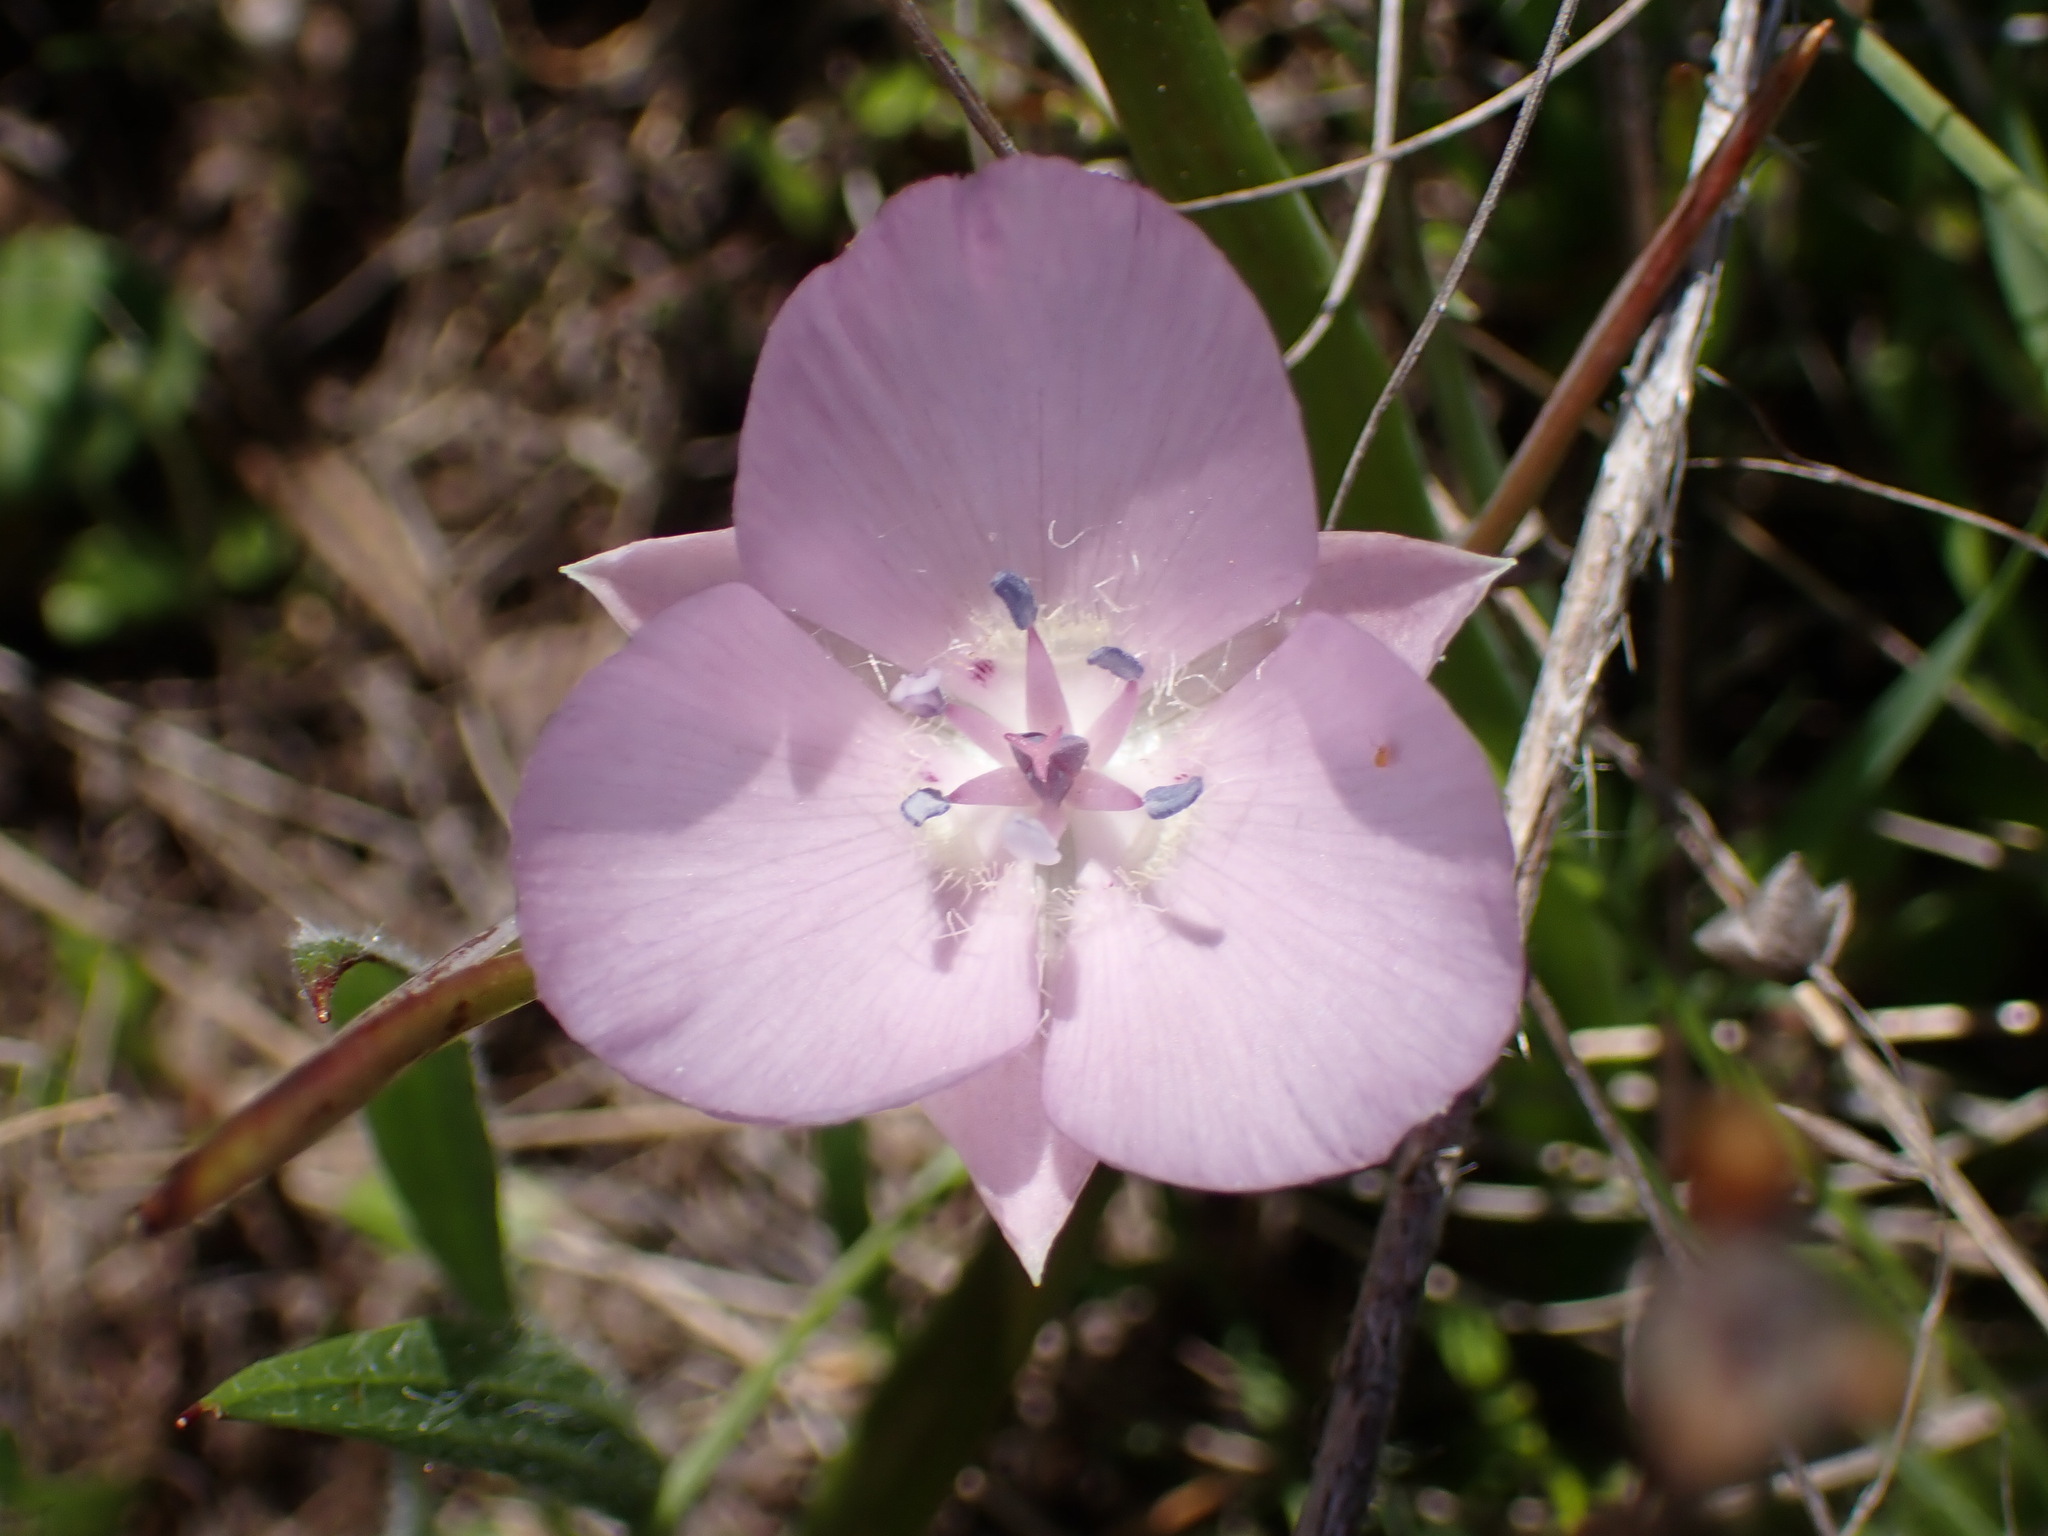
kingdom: Plantae
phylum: Tracheophyta
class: Liliopsida
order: Liliales
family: Liliaceae
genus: Calochortus
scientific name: Calochortus uniflorus
